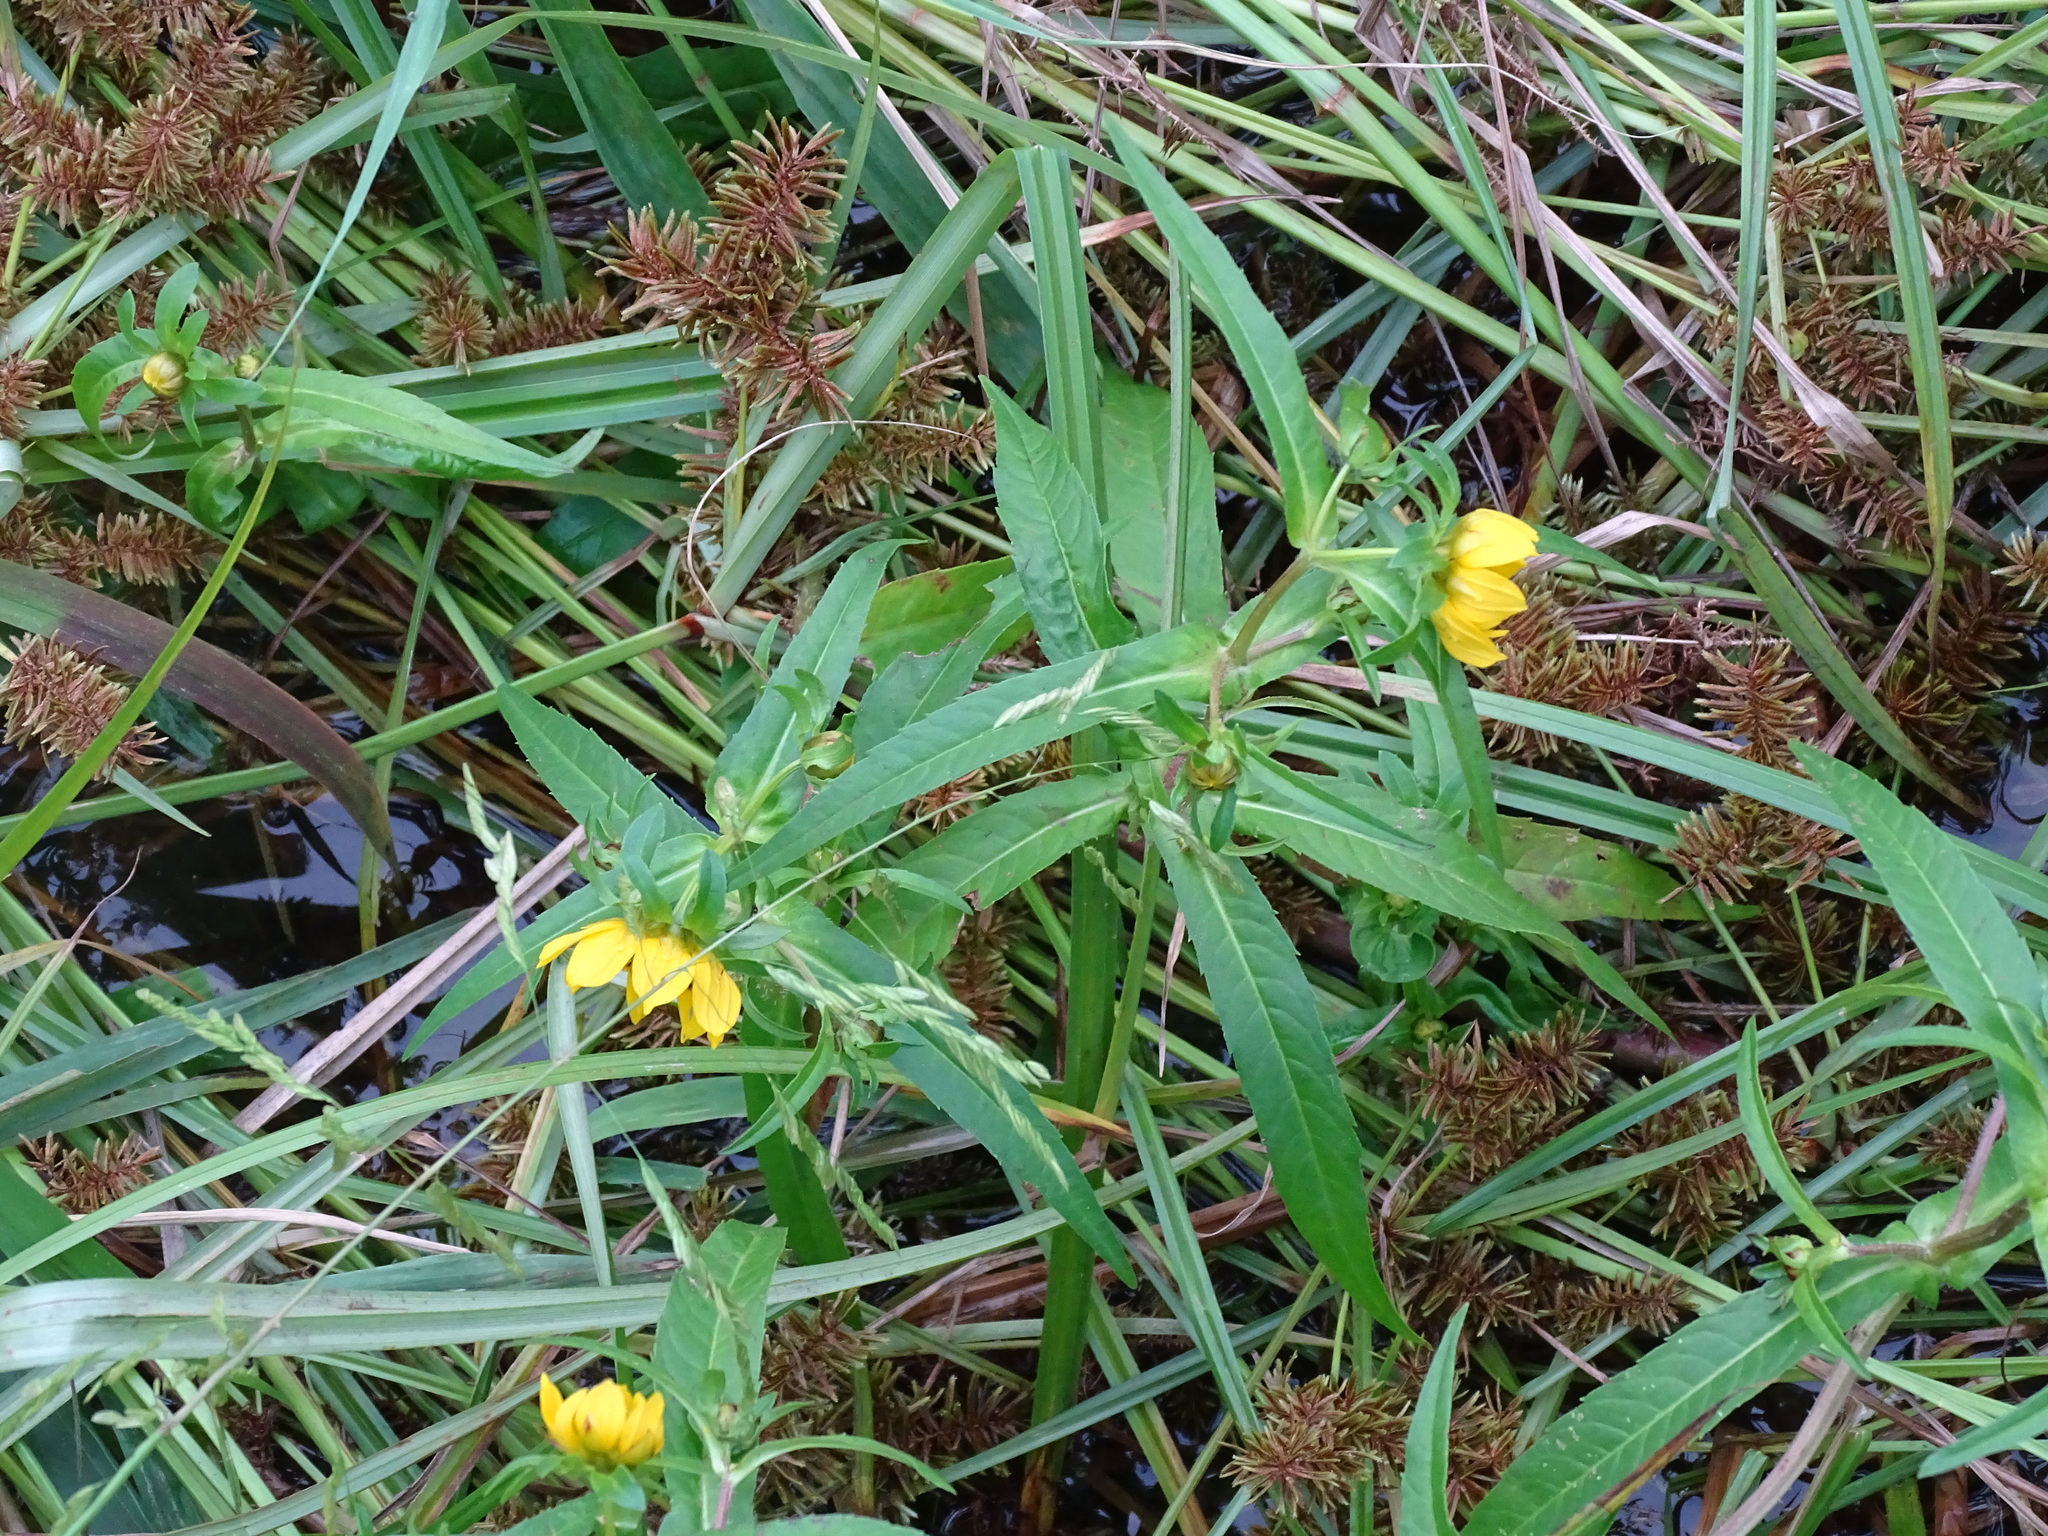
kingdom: Plantae
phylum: Tracheophyta
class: Magnoliopsida
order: Asterales
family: Asteraceae
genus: Bidens
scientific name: Bidens cernua
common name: Nodding bur-marigold
